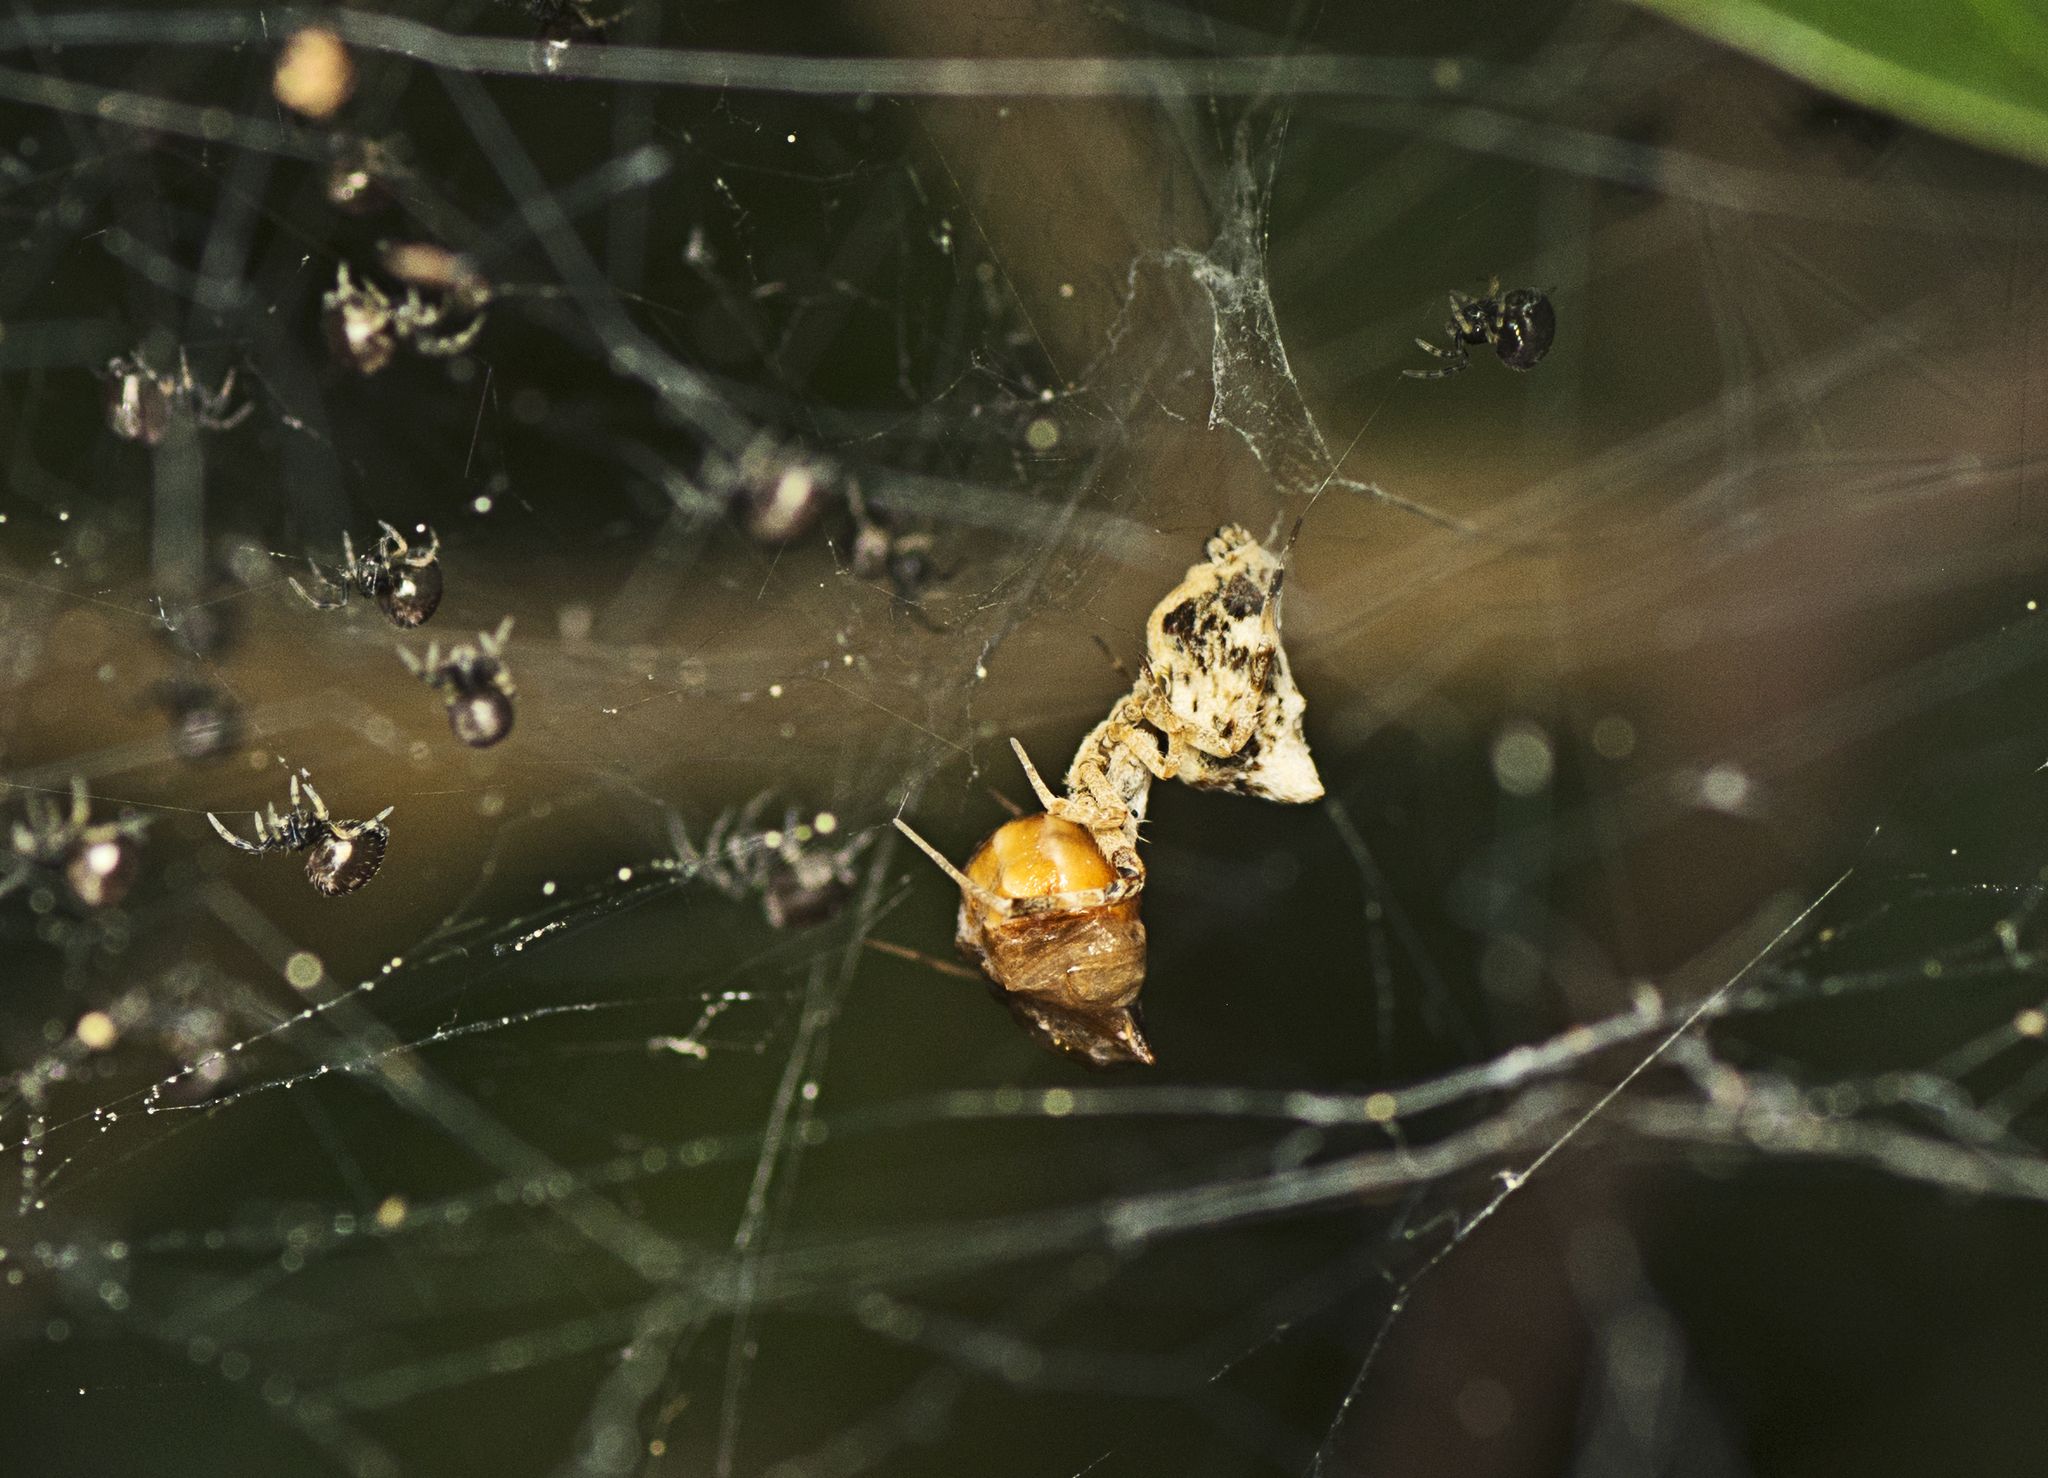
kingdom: Animalia
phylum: Arthropoda
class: Arachnida
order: Araneae
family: Uloboridae
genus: Philoponella
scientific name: Philoponella congregabilis
